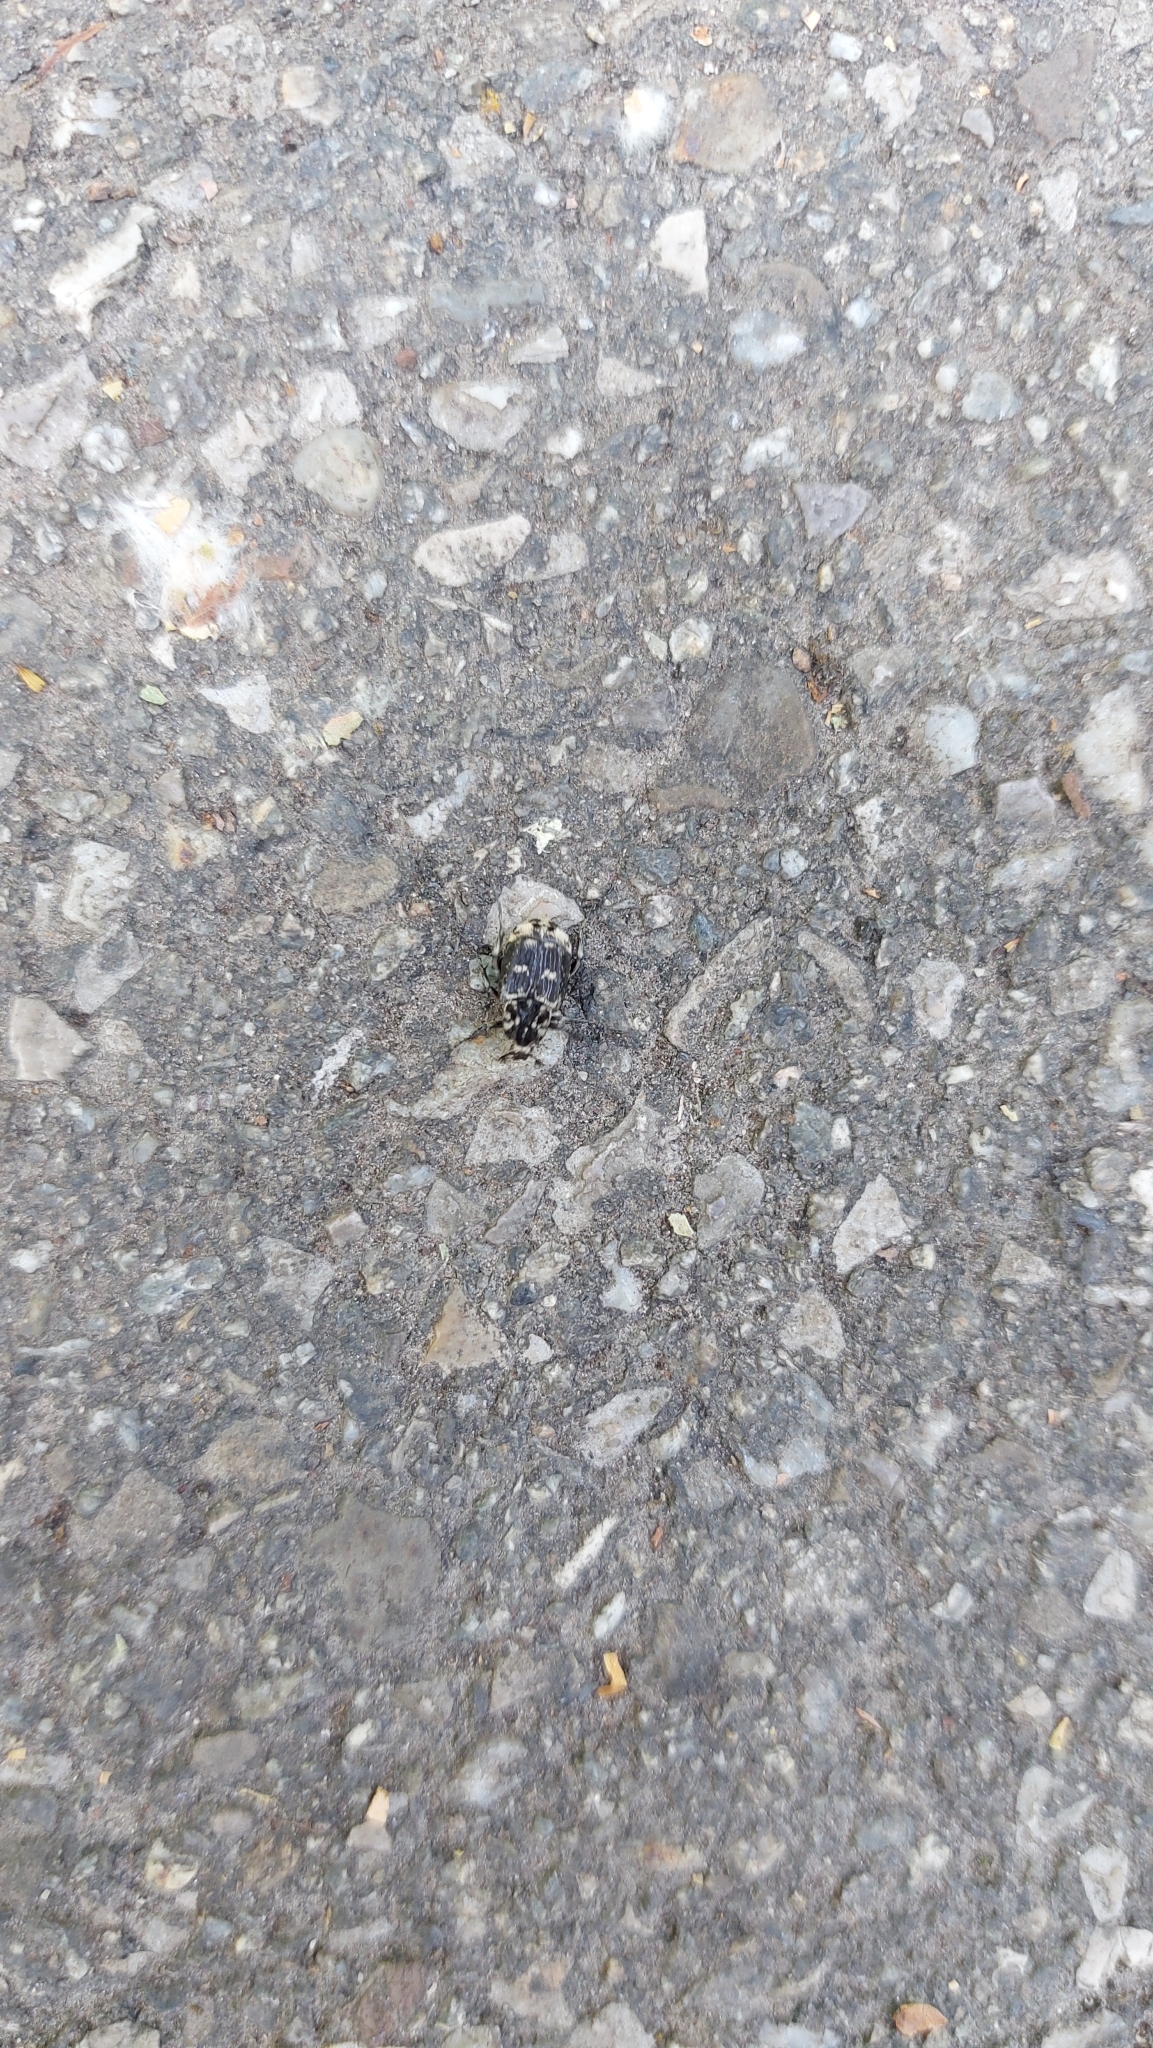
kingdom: Animalia
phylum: Arthropoda
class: Insecta
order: Coleoptera
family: Scarabaeidae
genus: Valgus
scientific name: Valgus hemipterus
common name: Bug flower chafer
